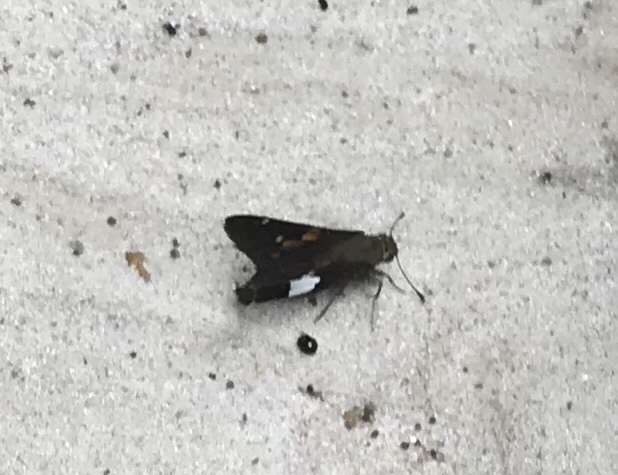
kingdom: Animalia
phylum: Arthropoda
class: Insecta
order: Lepidoptera
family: Hesperiidae
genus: Epargyreus
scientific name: Epargyreus clarus
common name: Silver-spotted skipper
